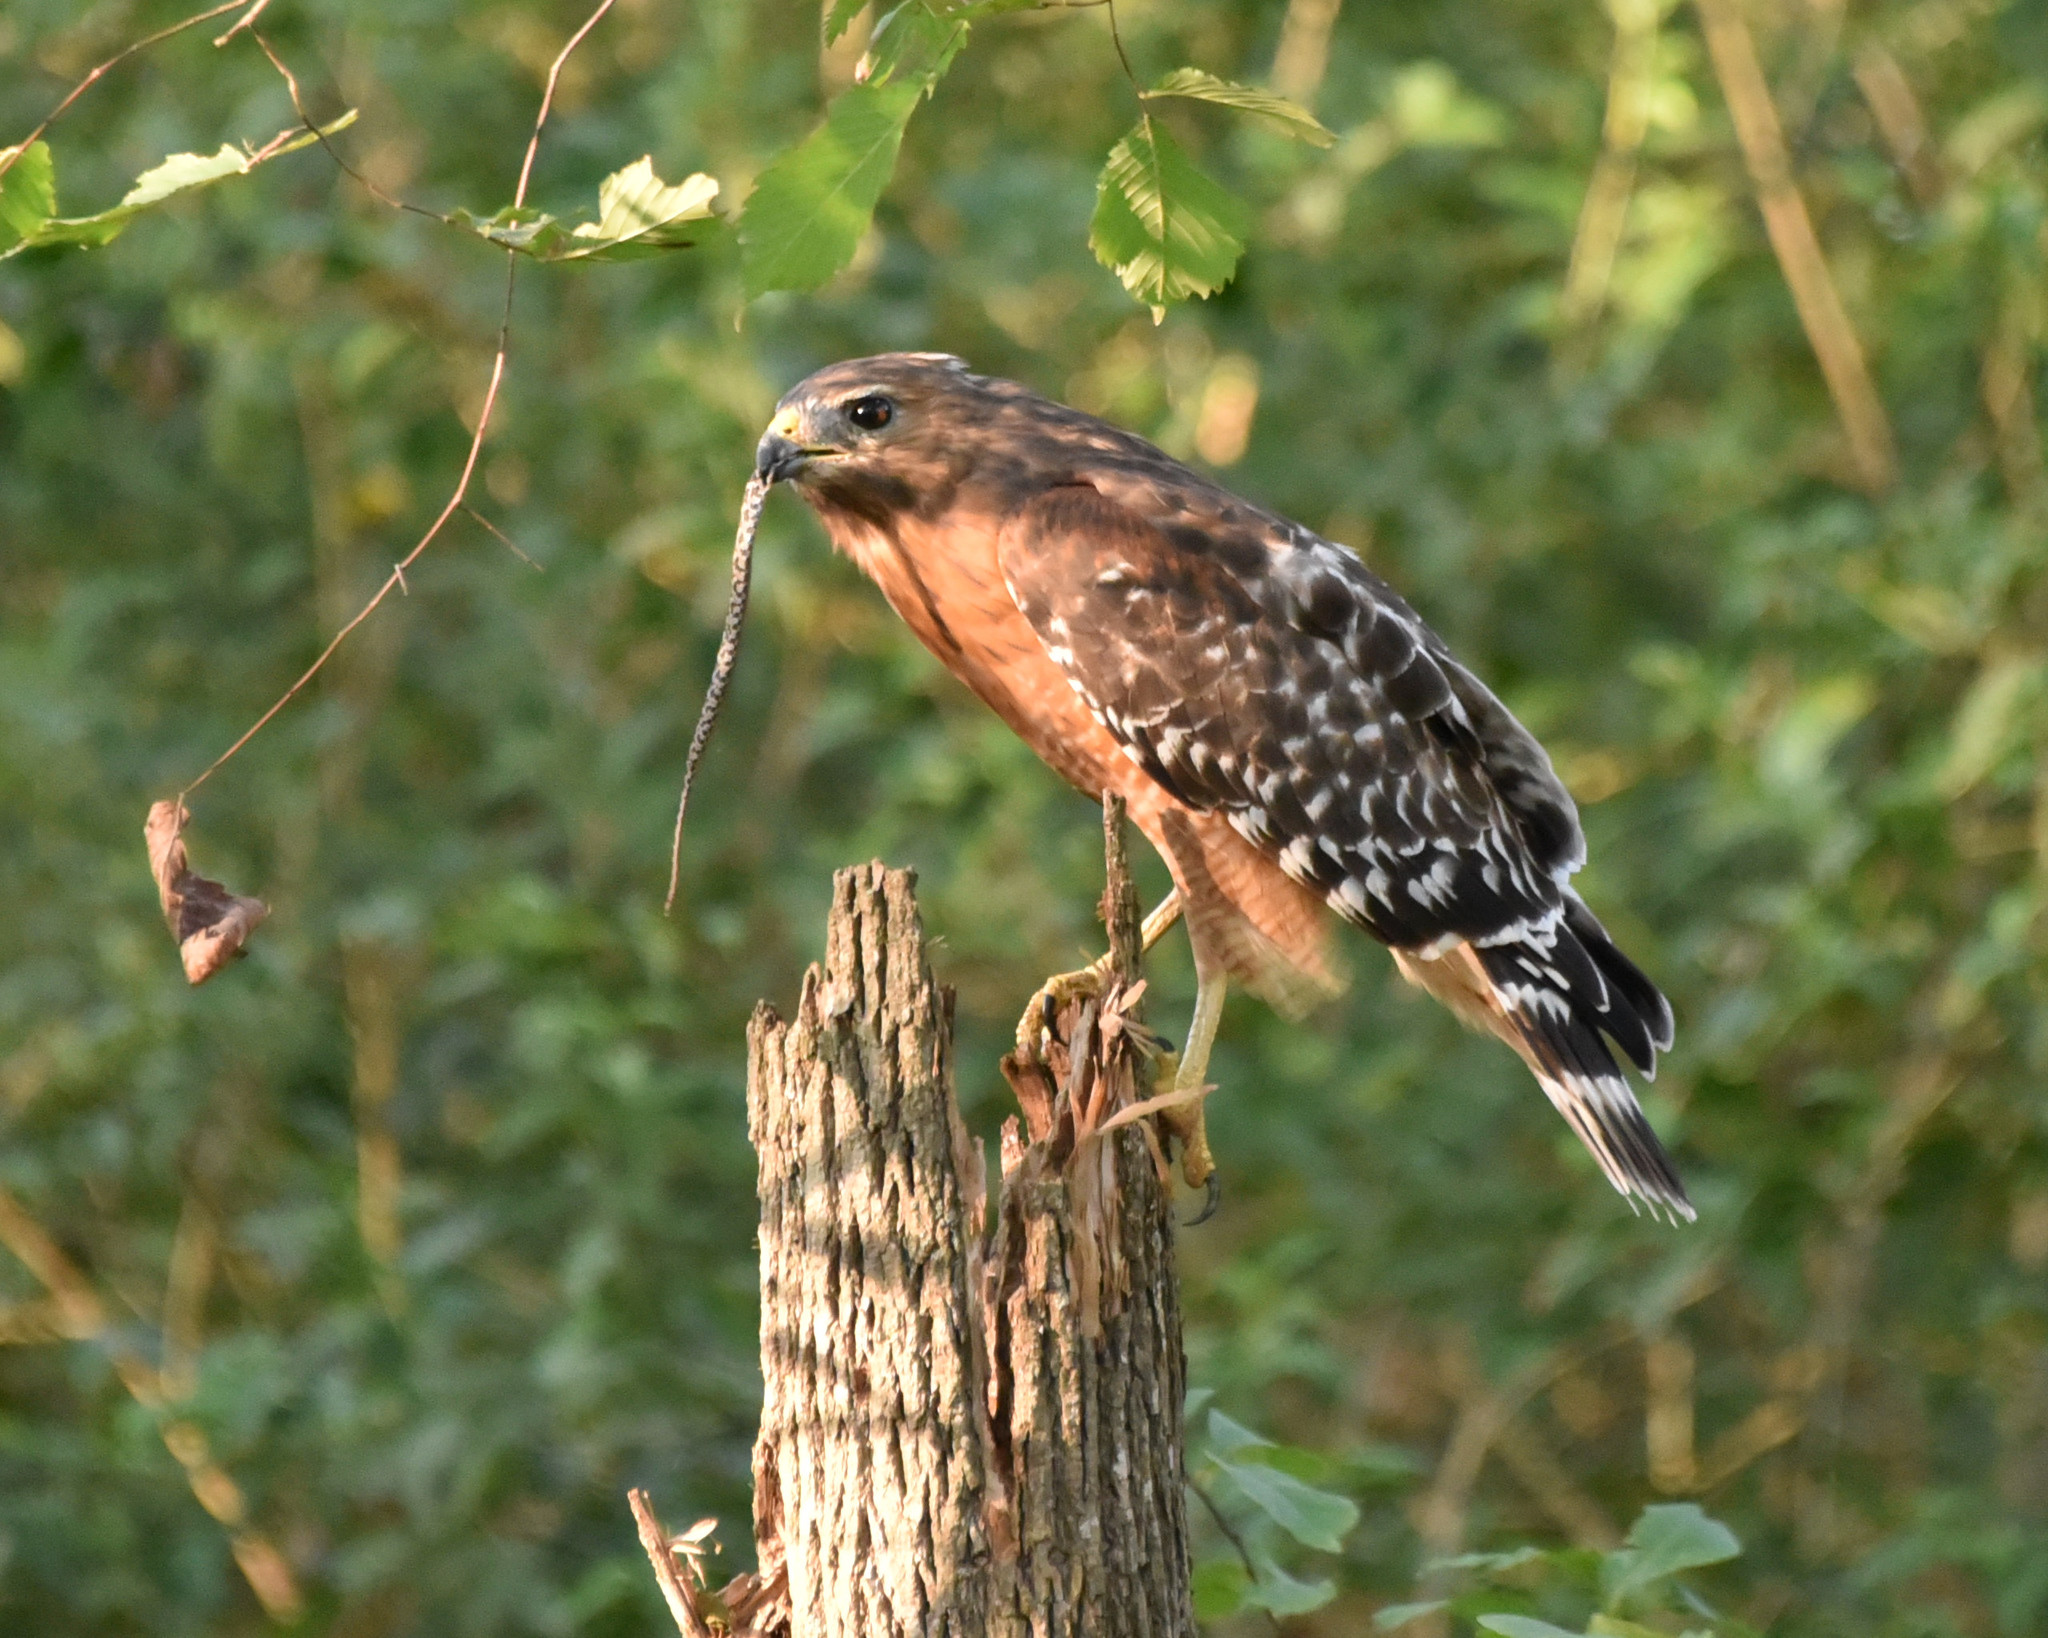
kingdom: Animalia
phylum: Chordata
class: Squamata
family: Colubridae
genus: Pantherophis
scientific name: Pantherophis obsoletus
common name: Black rat snake
